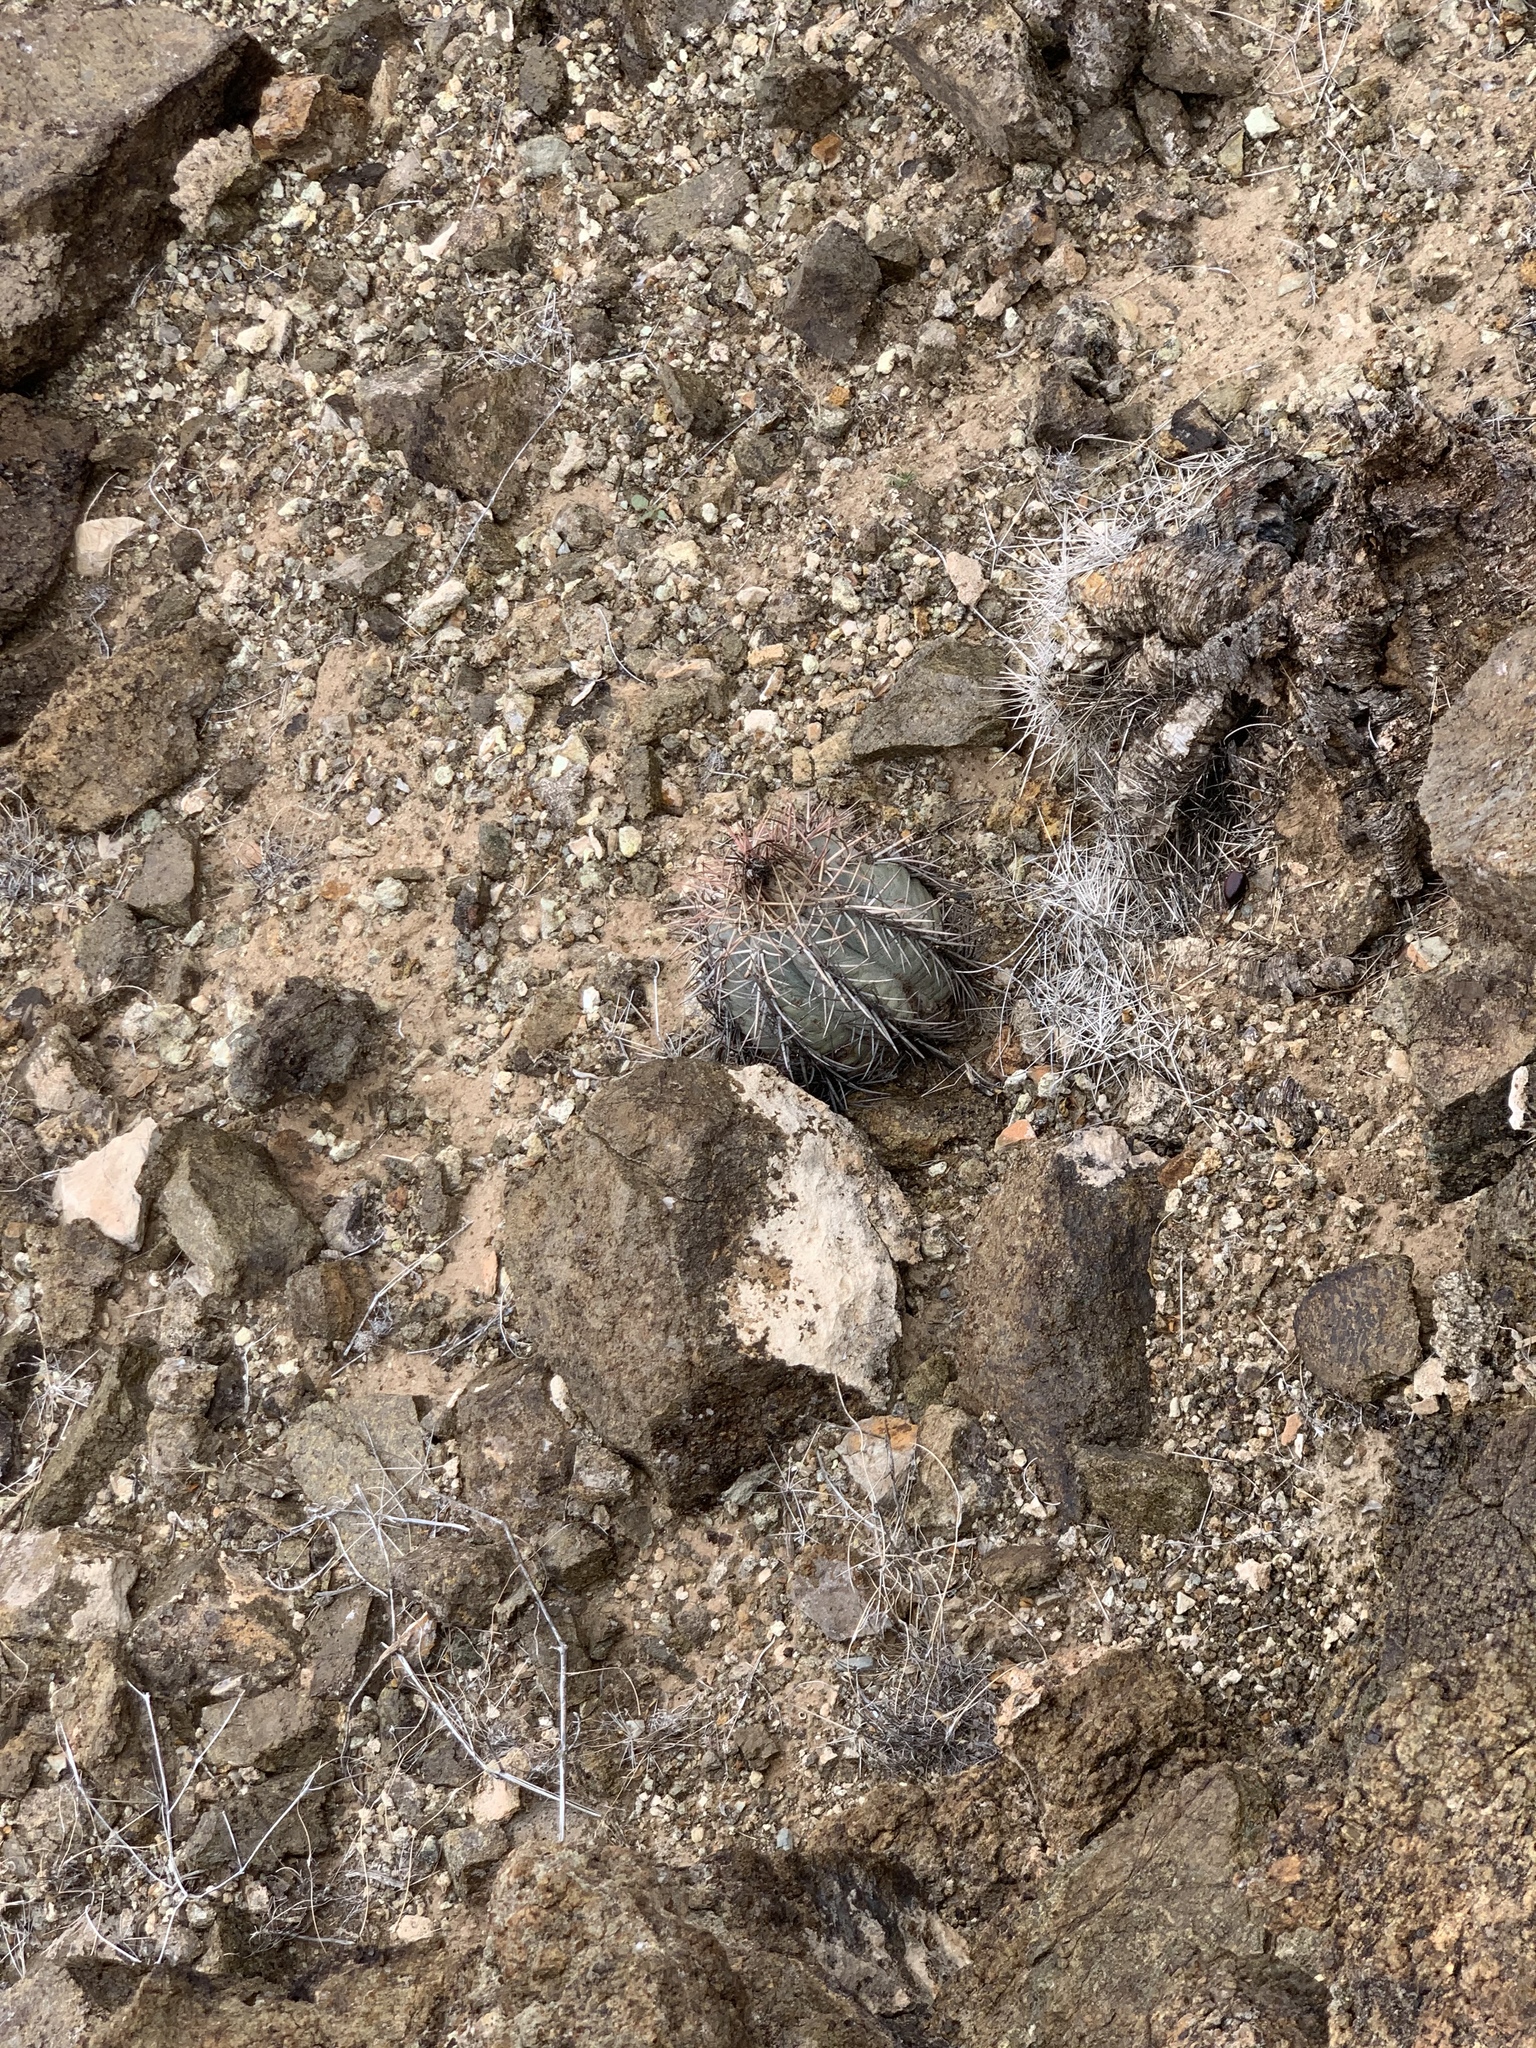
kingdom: Plantae
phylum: Tracheophyta
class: Magnoliopsida
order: Caryophyllales
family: Cactaceae
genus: Echinocactus
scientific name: Echinocactus horizonthalonius
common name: Devilshead
